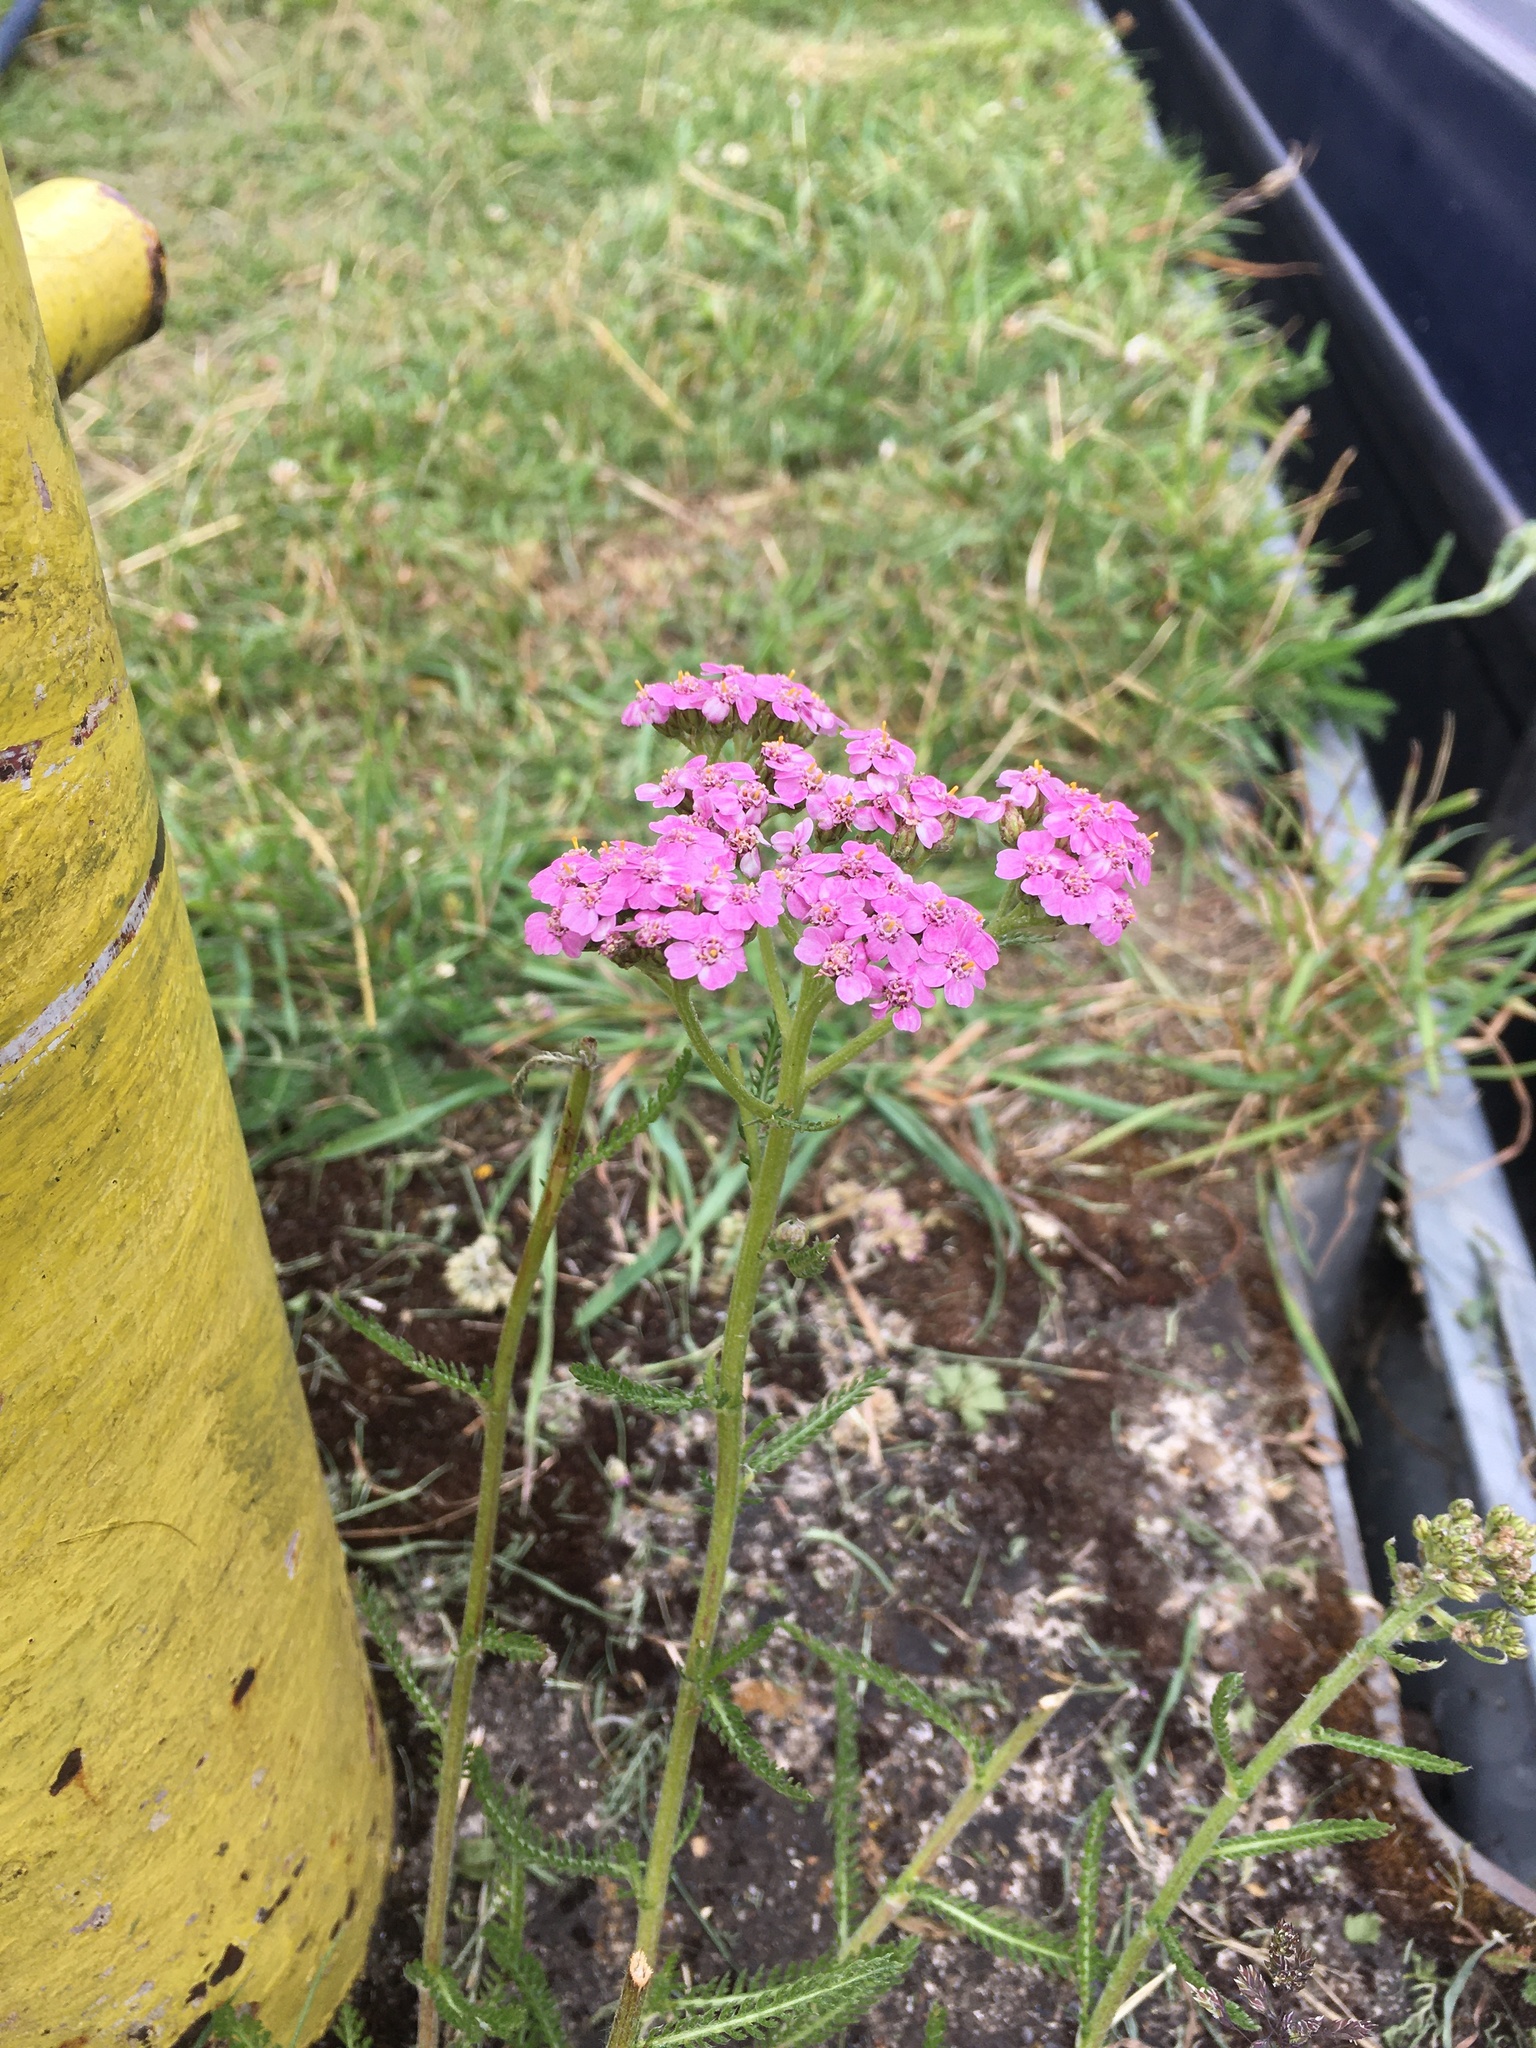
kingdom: Plantae
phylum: Tracheophyta
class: Magnoliopsida
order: Asterales
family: Asteraceae
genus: Achillea
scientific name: Achillea millefolium
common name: Yarrow
